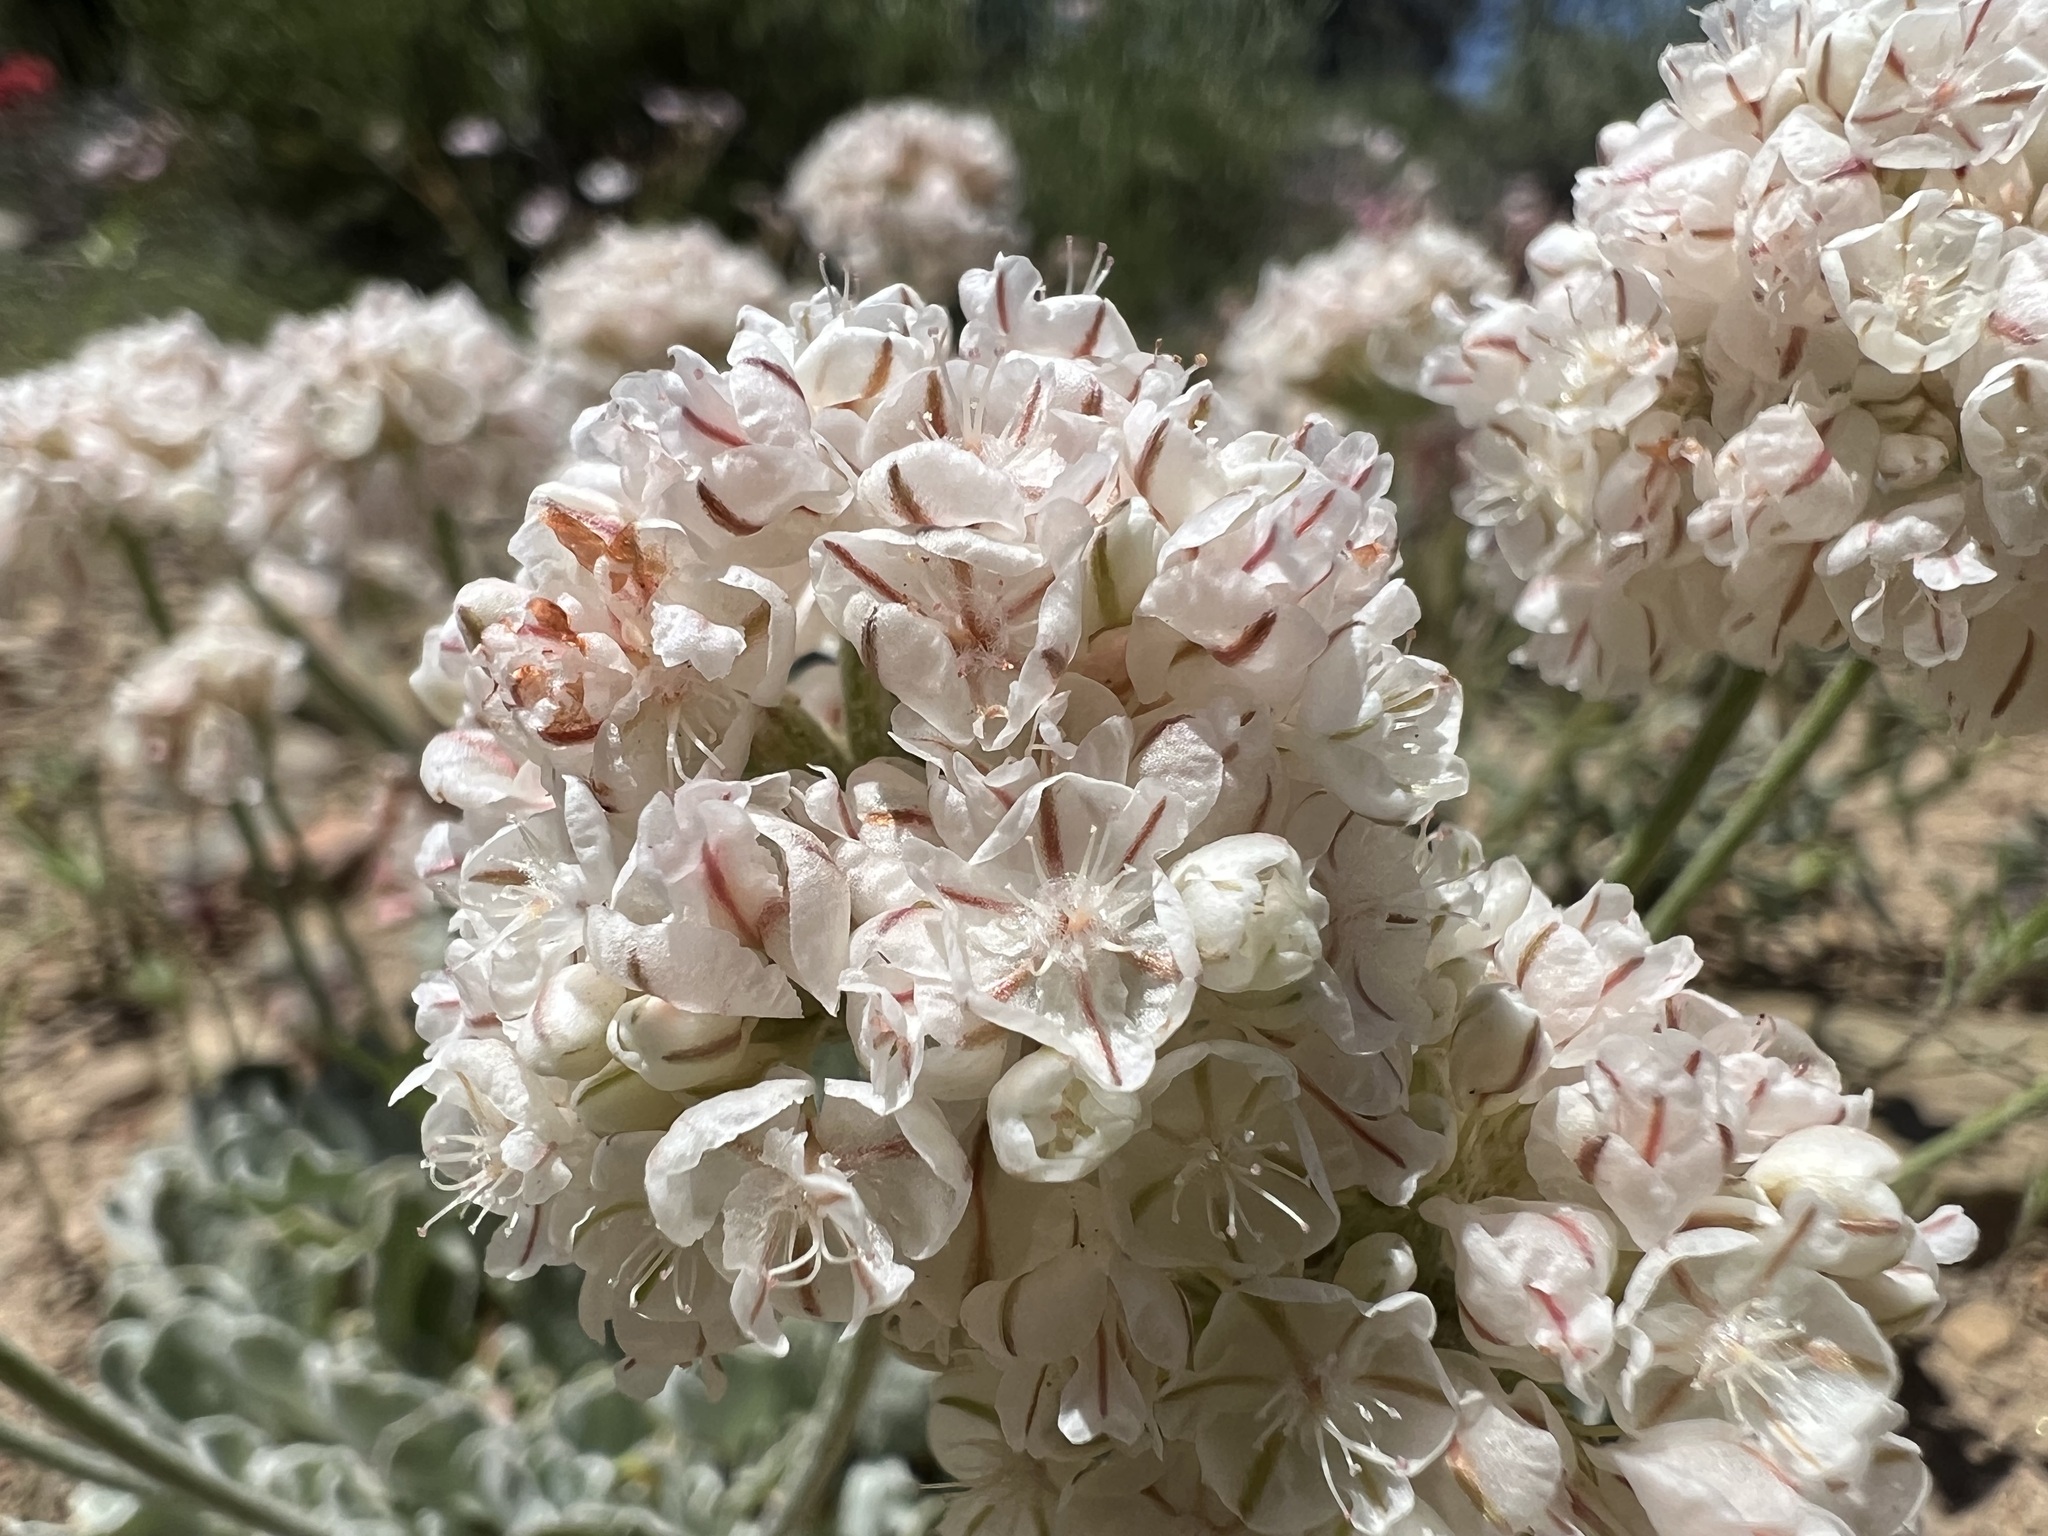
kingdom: Plantae
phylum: Tracheophyta
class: Magnoliopsida
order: Caryophyllales
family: Polygonaceae
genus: Eriogonum
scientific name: Eriogonum ovalifolium
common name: Cushion buckwheat
